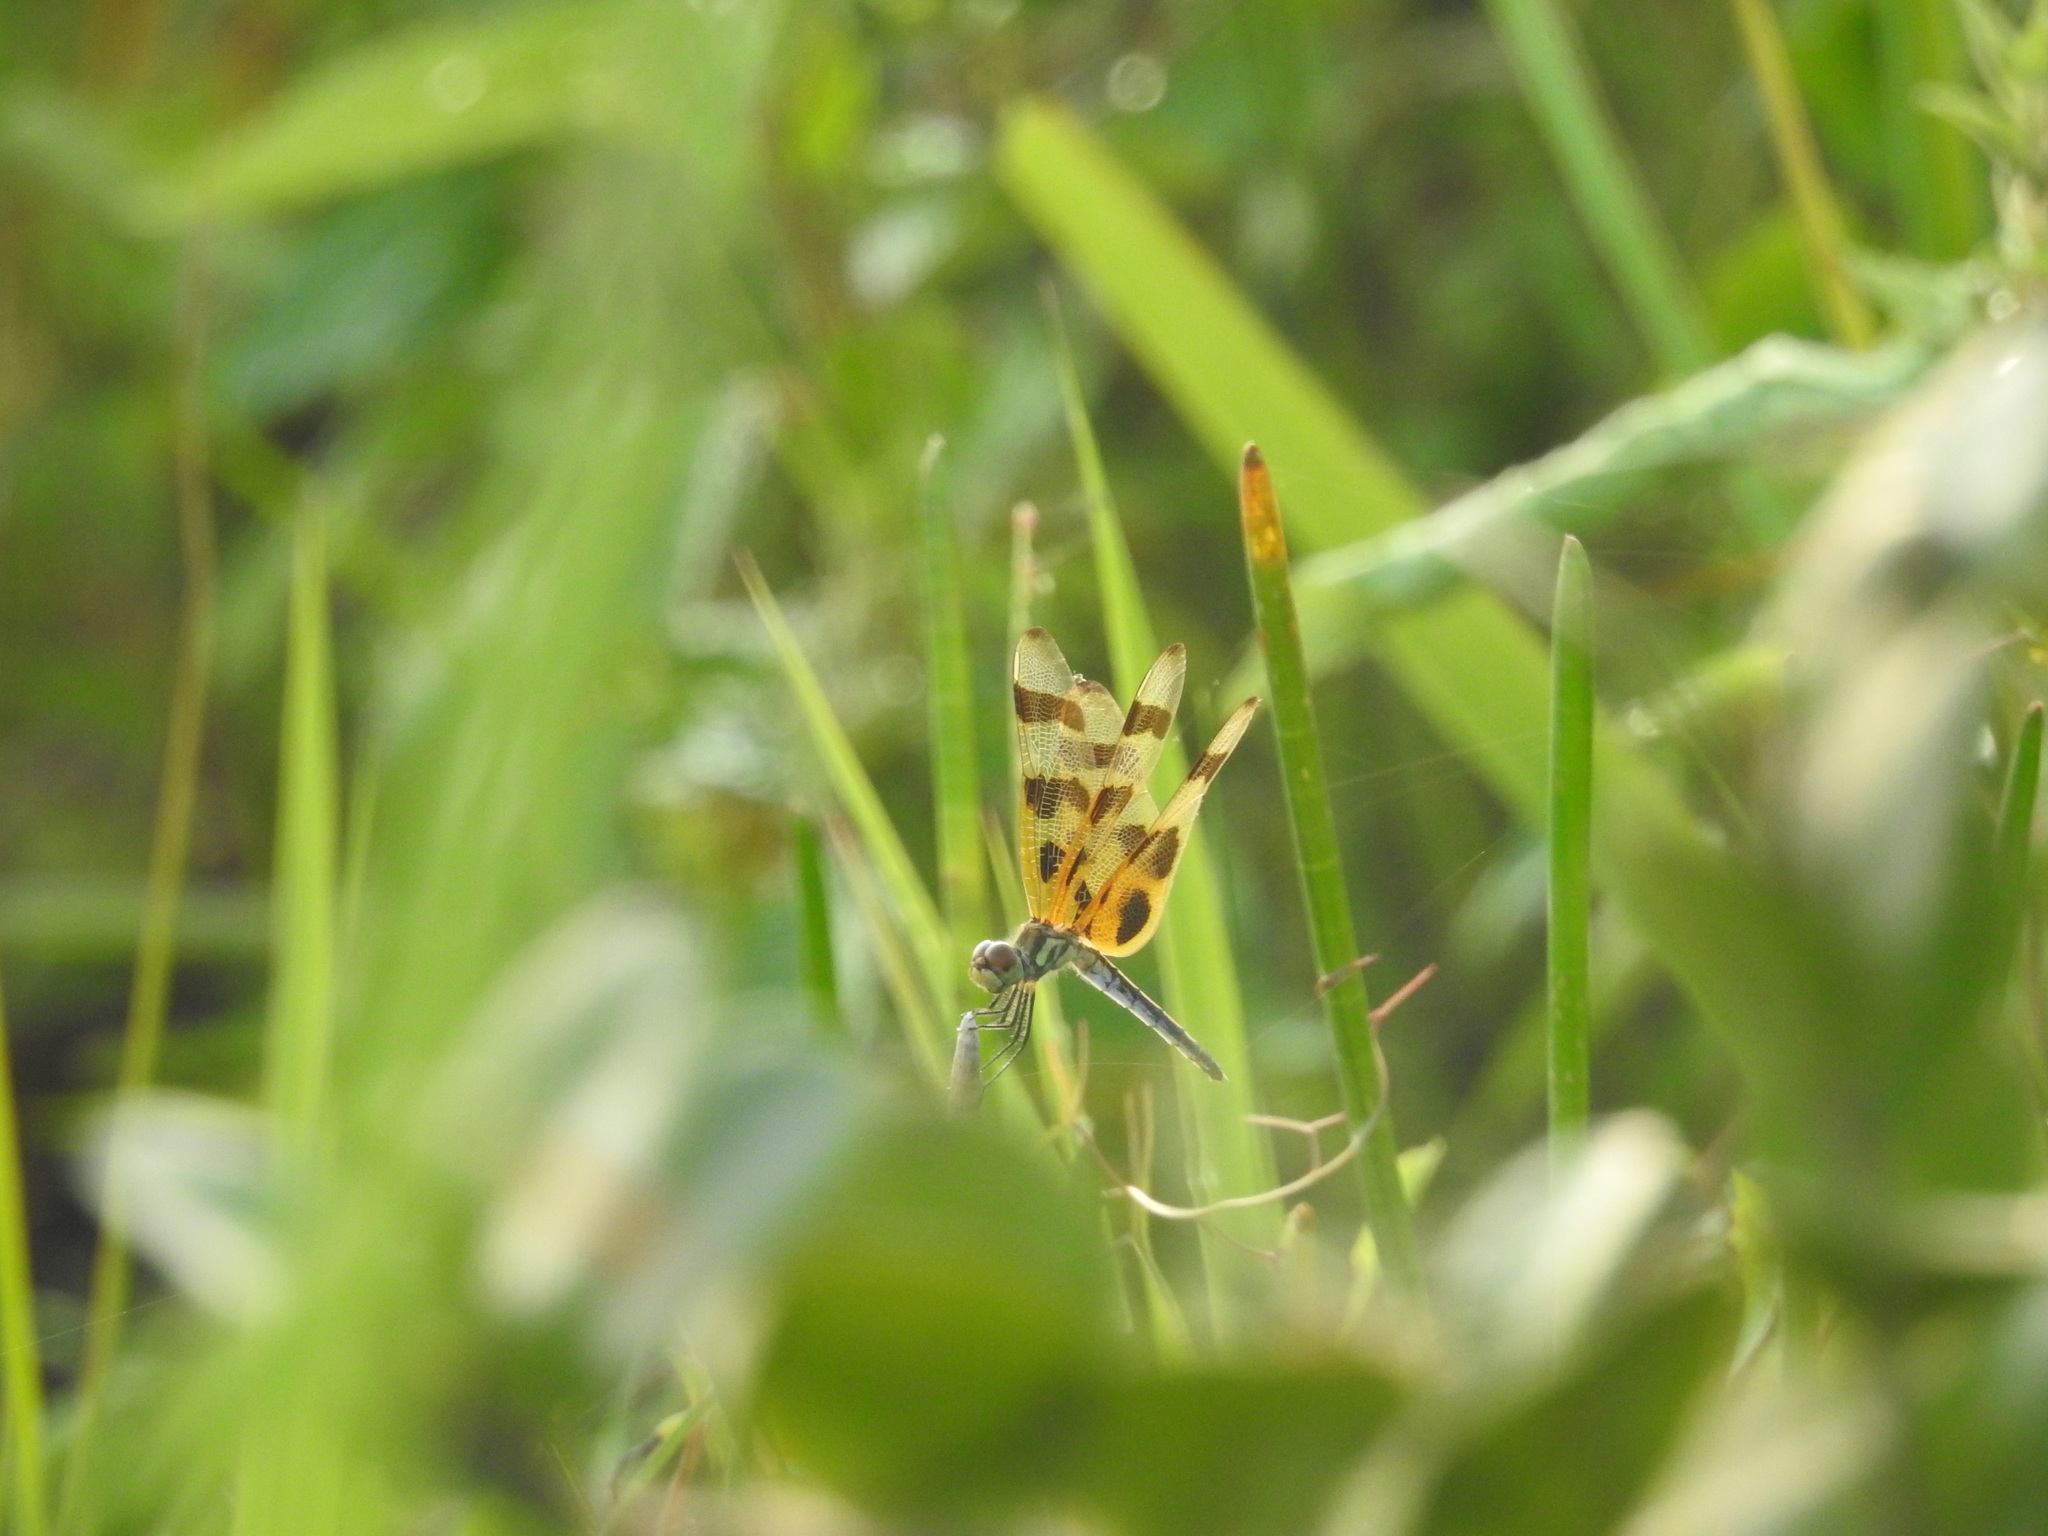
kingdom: Animalia
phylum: Arthropoda
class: Insecta
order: Odonata
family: Libellulidae
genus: Celithemis
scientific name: Celithemis eponina
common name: Halloween pennant
